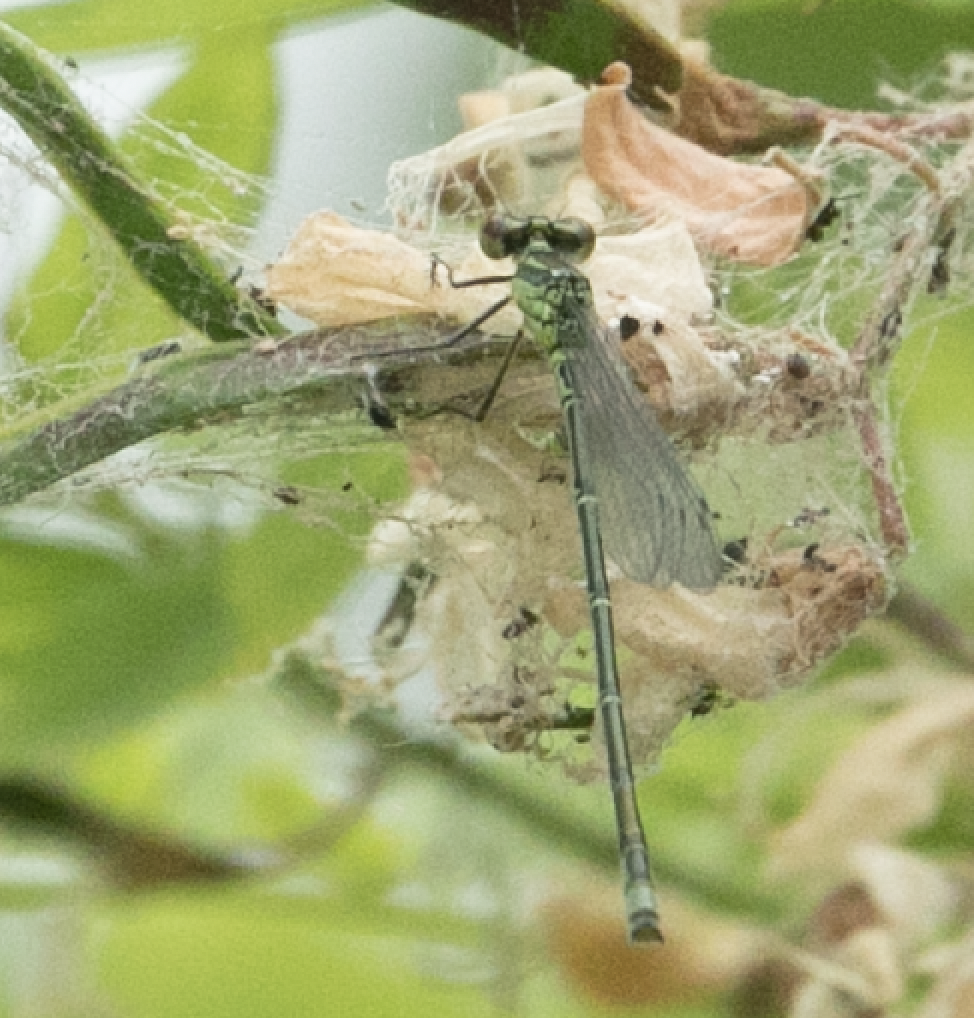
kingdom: Animalia
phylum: Arthropoda
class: Insecta
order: Odonata
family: Coenagrionidae
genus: Erythromma
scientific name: Erythromma viridulum
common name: Small red-eyed damselfly
